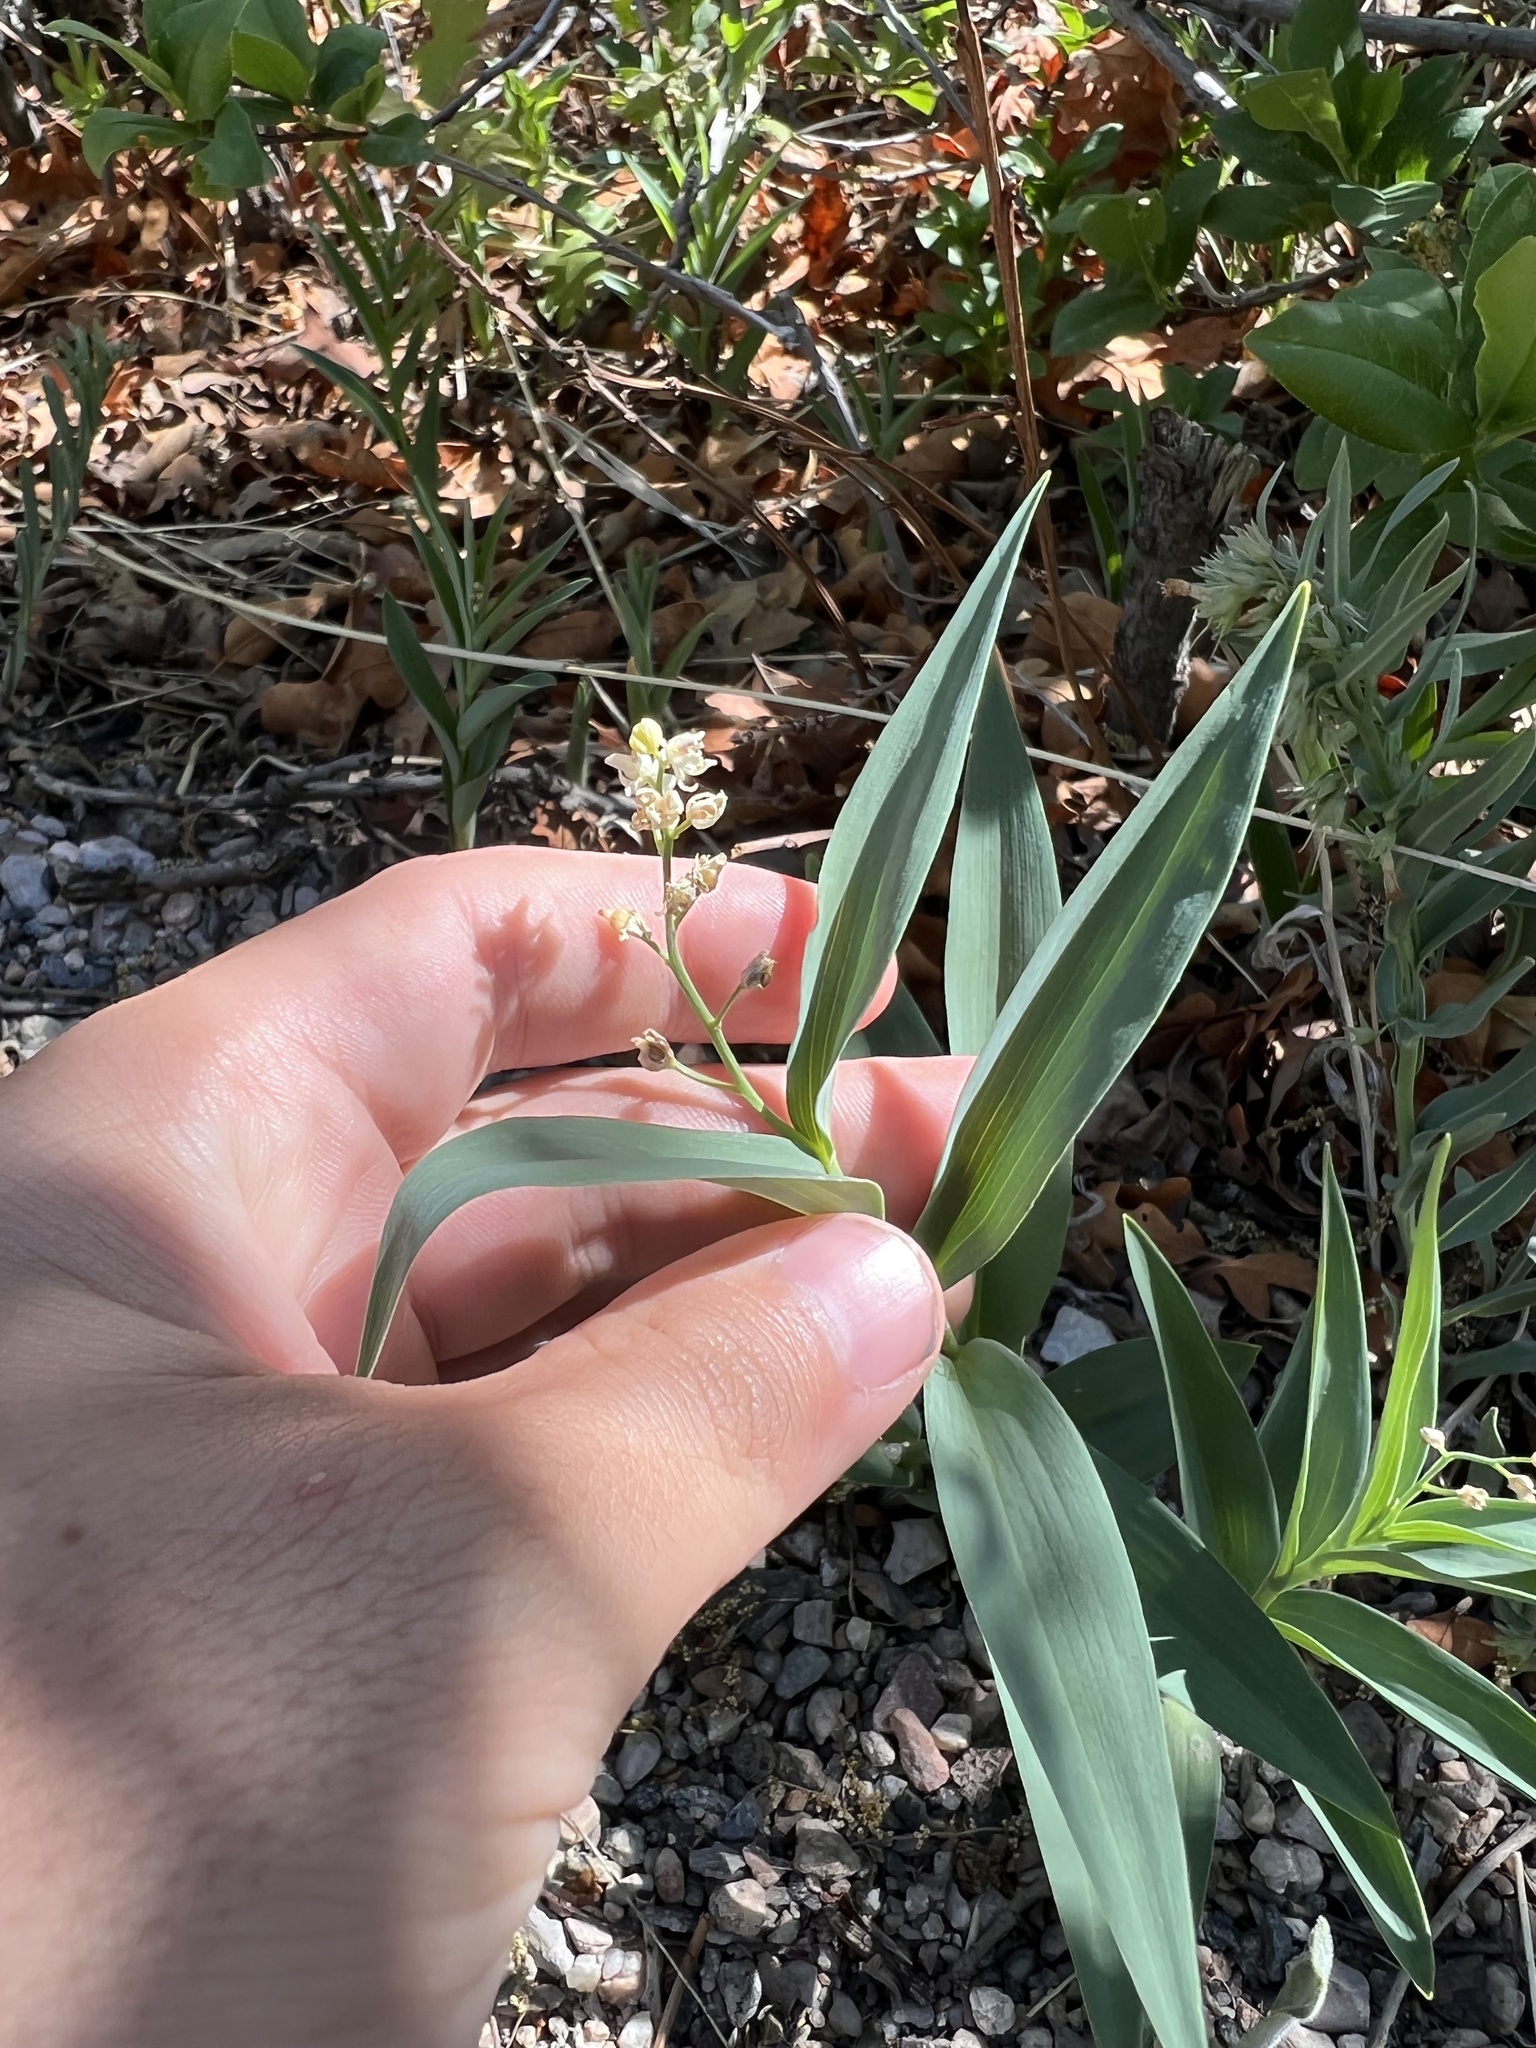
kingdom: Plantae
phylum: Tracheophyta
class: Liliopsida
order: Asparagales
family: Asparagaceae
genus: Maianthemum
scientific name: Maianthemum stellatum
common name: Little false solomon's seal
